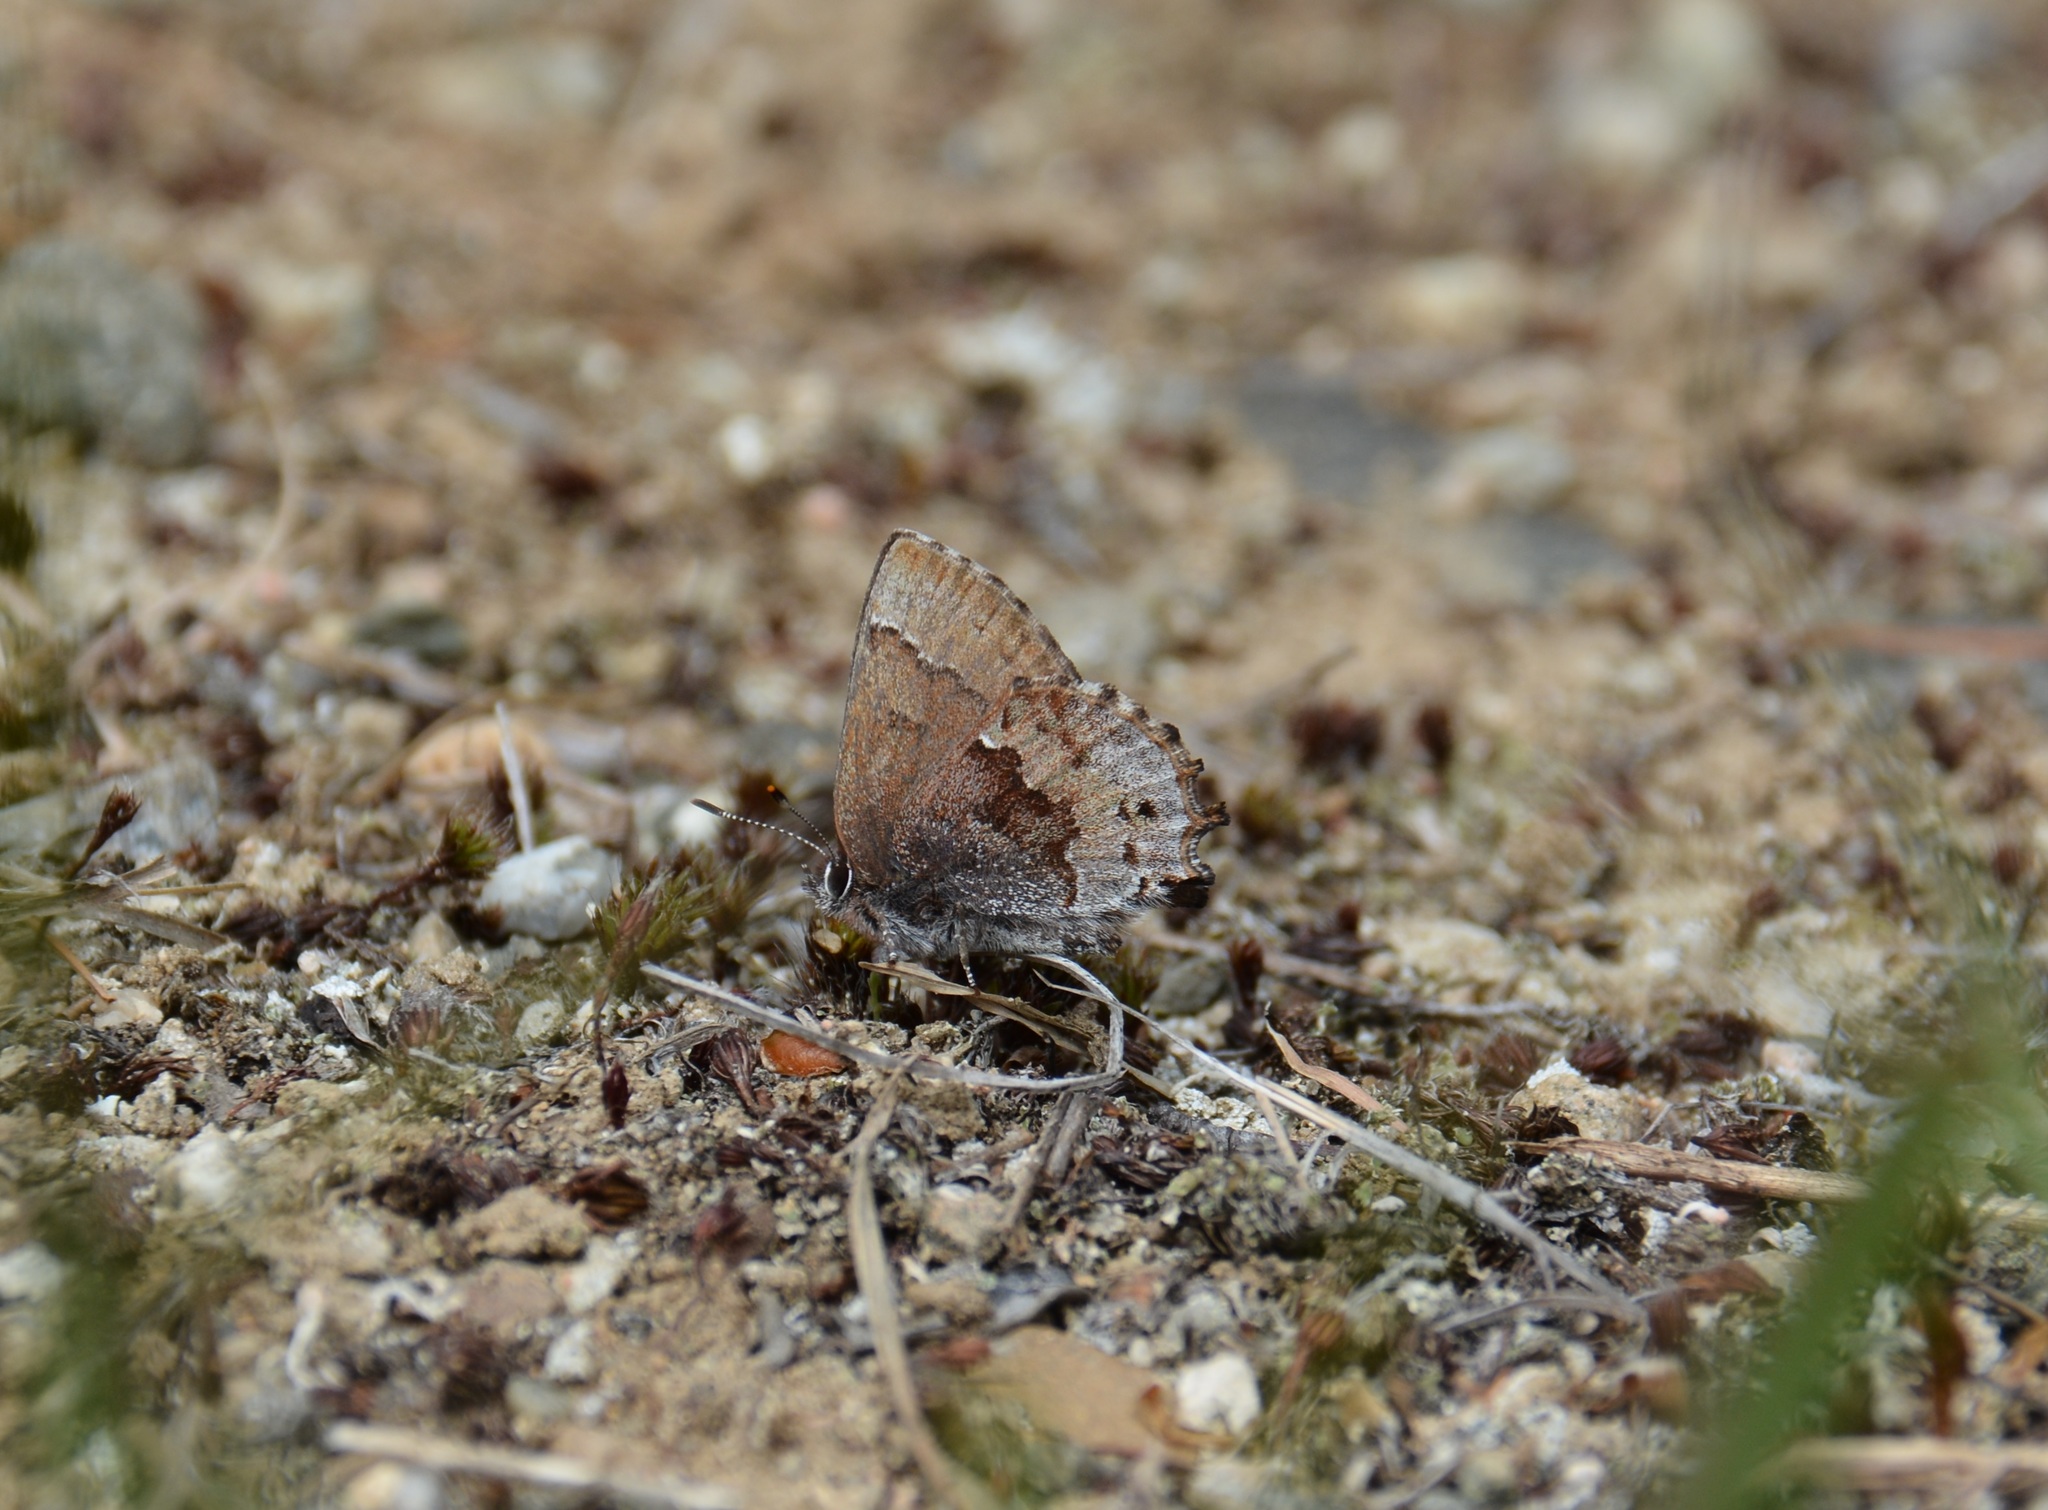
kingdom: Animalia
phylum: Arthropoda
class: Insecta
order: Lepidoptera
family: Lycaenidae
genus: Thecla
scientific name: Thecla irus
